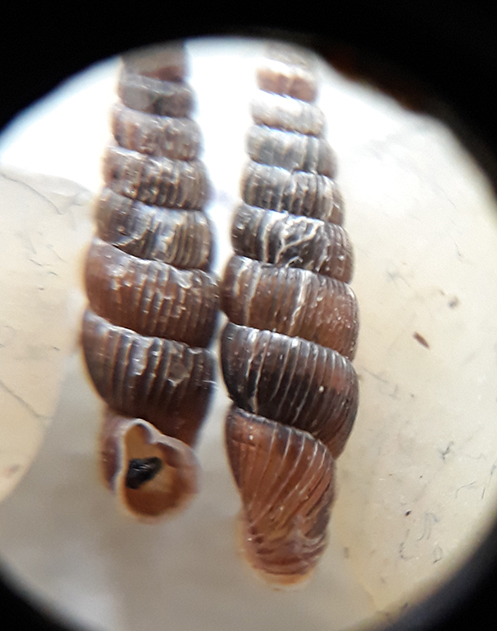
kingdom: Animalia
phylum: Mollusca
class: Gastropoda
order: Stylommatophora
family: Clausiliidae
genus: Ruthenica
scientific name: Ruthenica filograna
